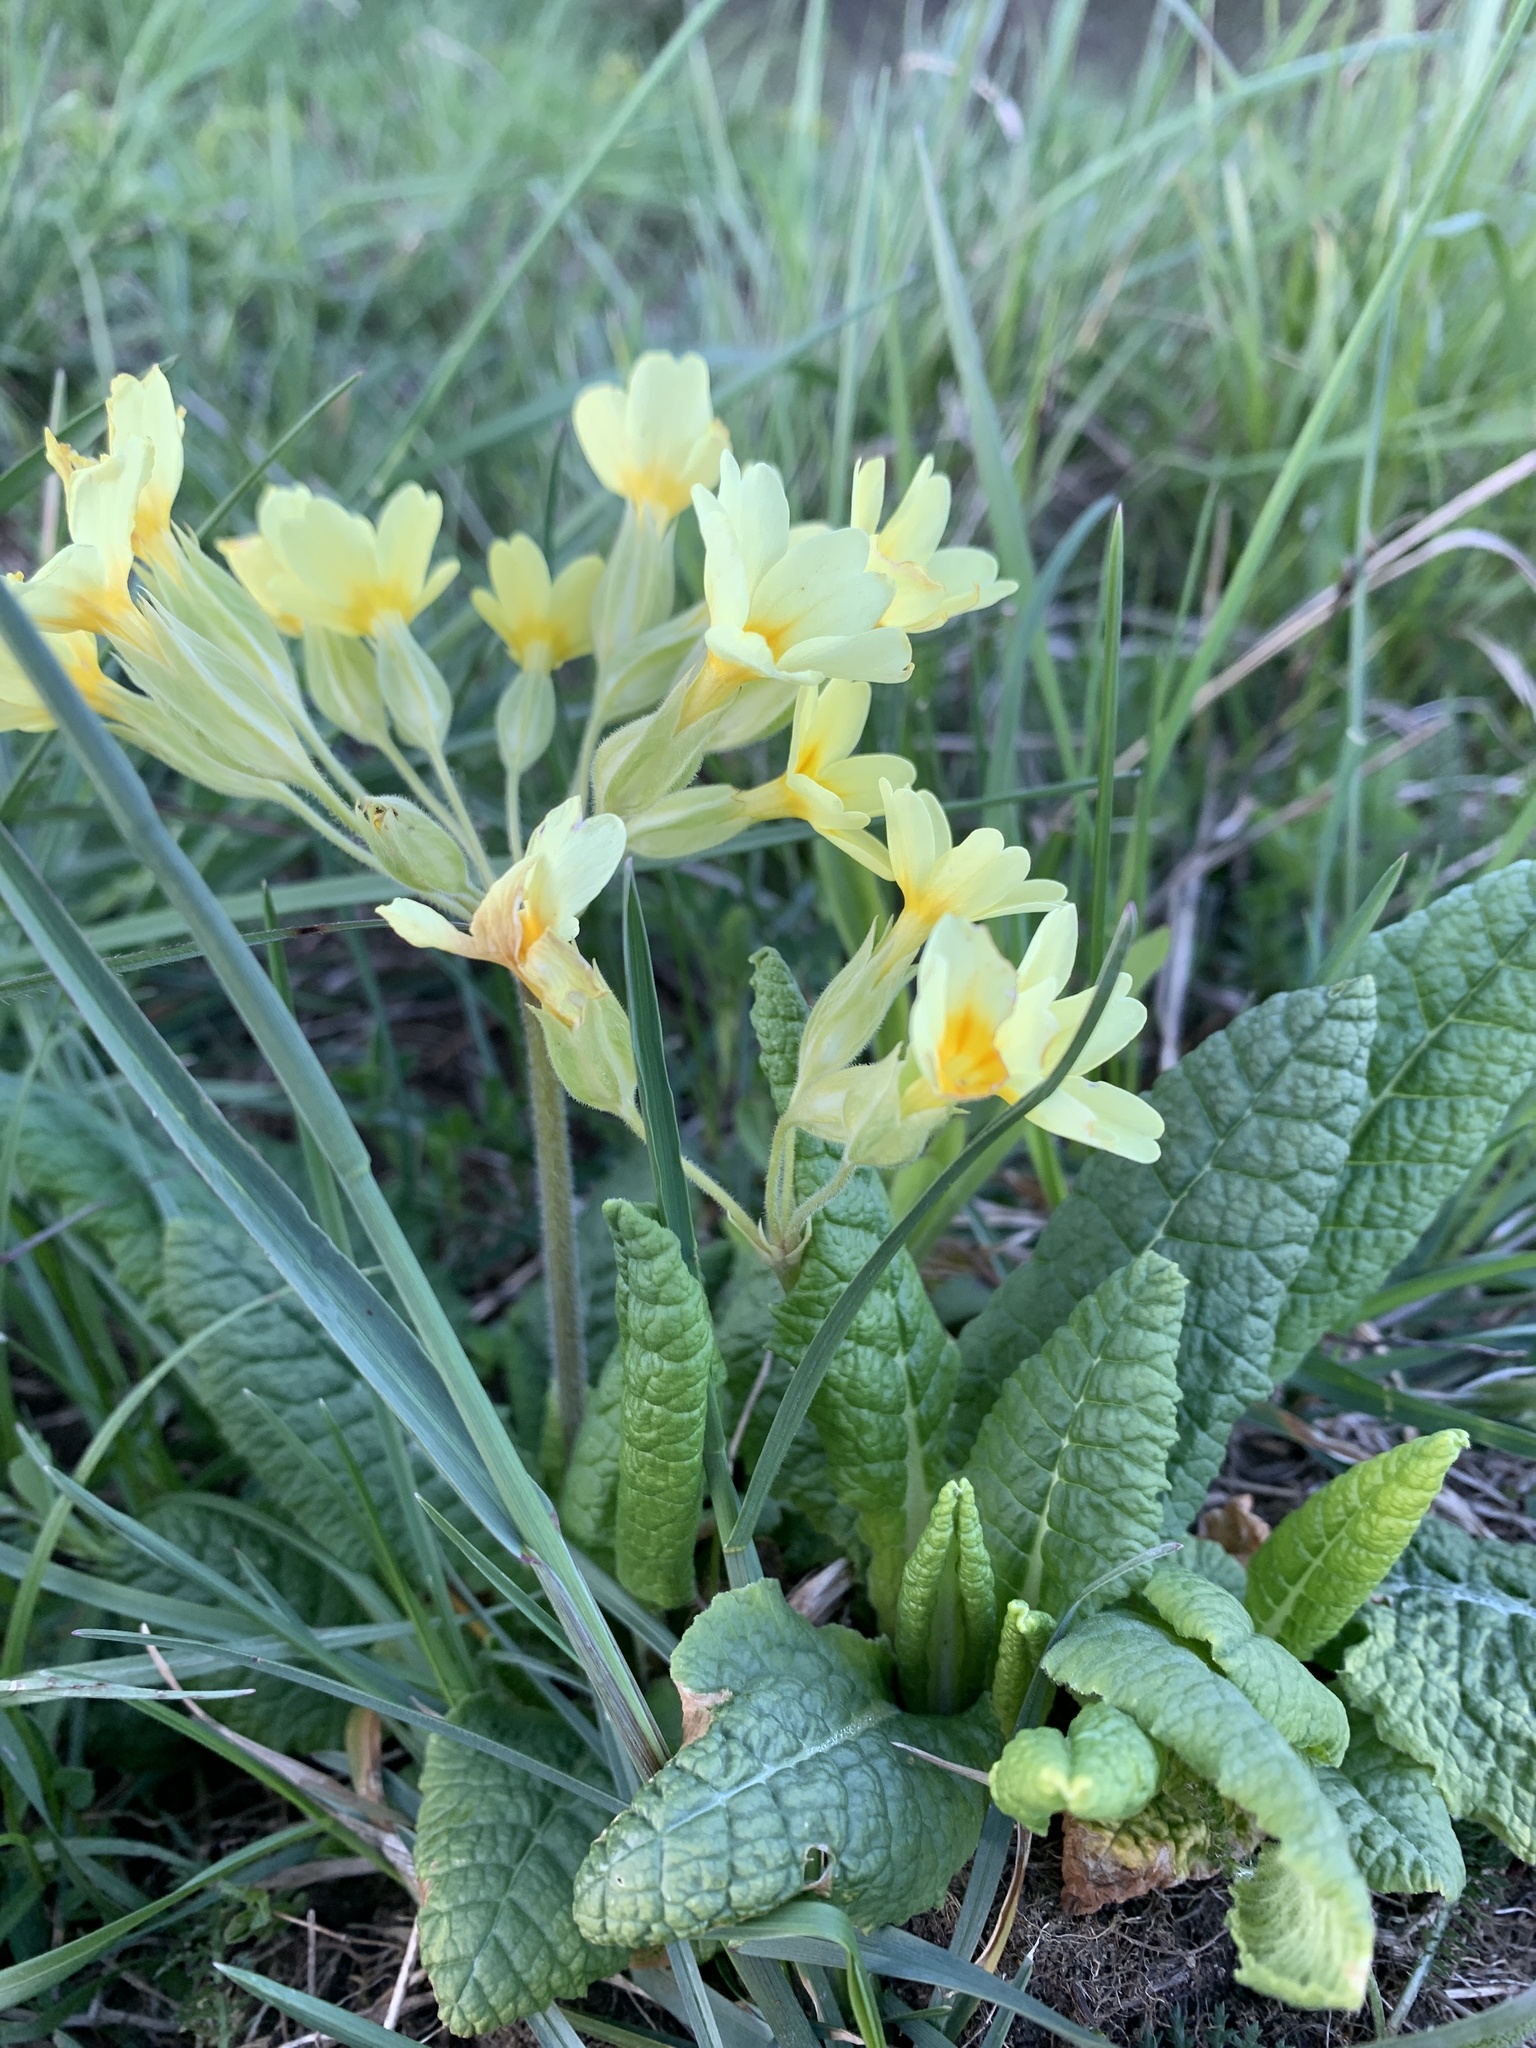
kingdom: Plantae
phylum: Tracheophyta
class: Magnoliopsida
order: Ericales
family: Primulaceae
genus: Primula
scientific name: Primula elatior
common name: Oxlip
